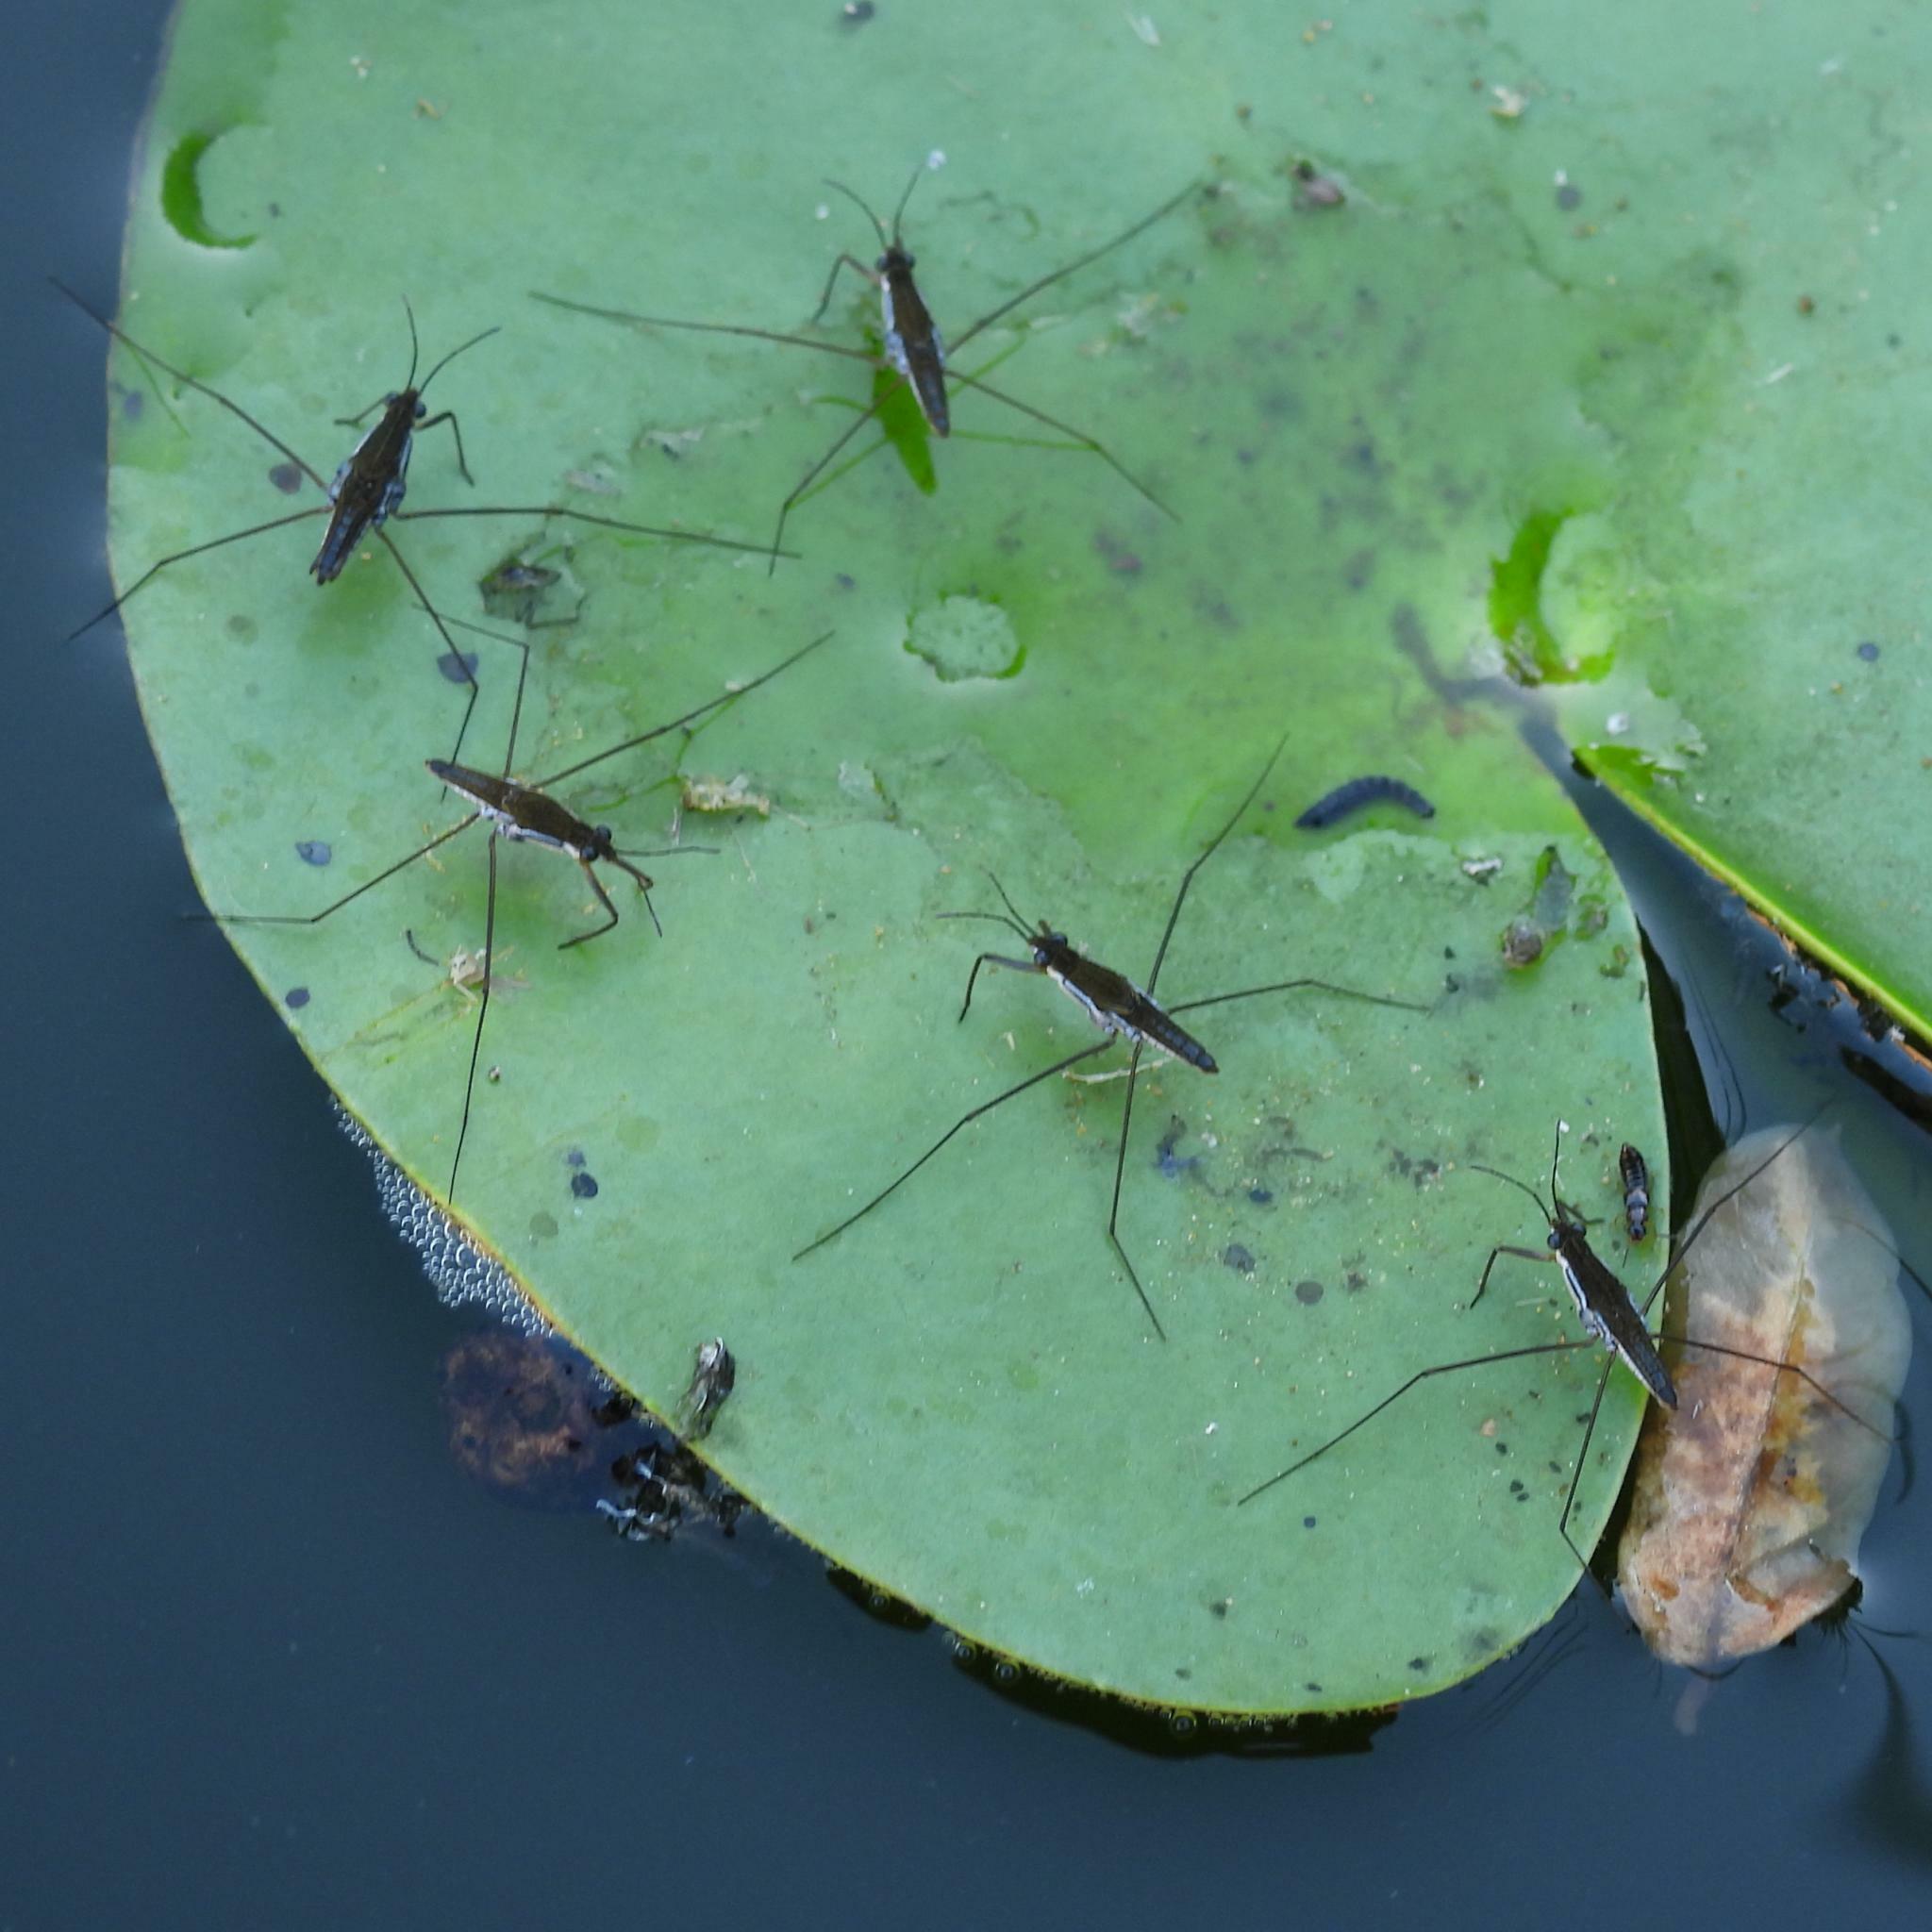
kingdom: Animalia
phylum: Arthropoda
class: Insecta
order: Hemiptera
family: Gerridae
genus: Gerris
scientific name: Gerris swakopensis
